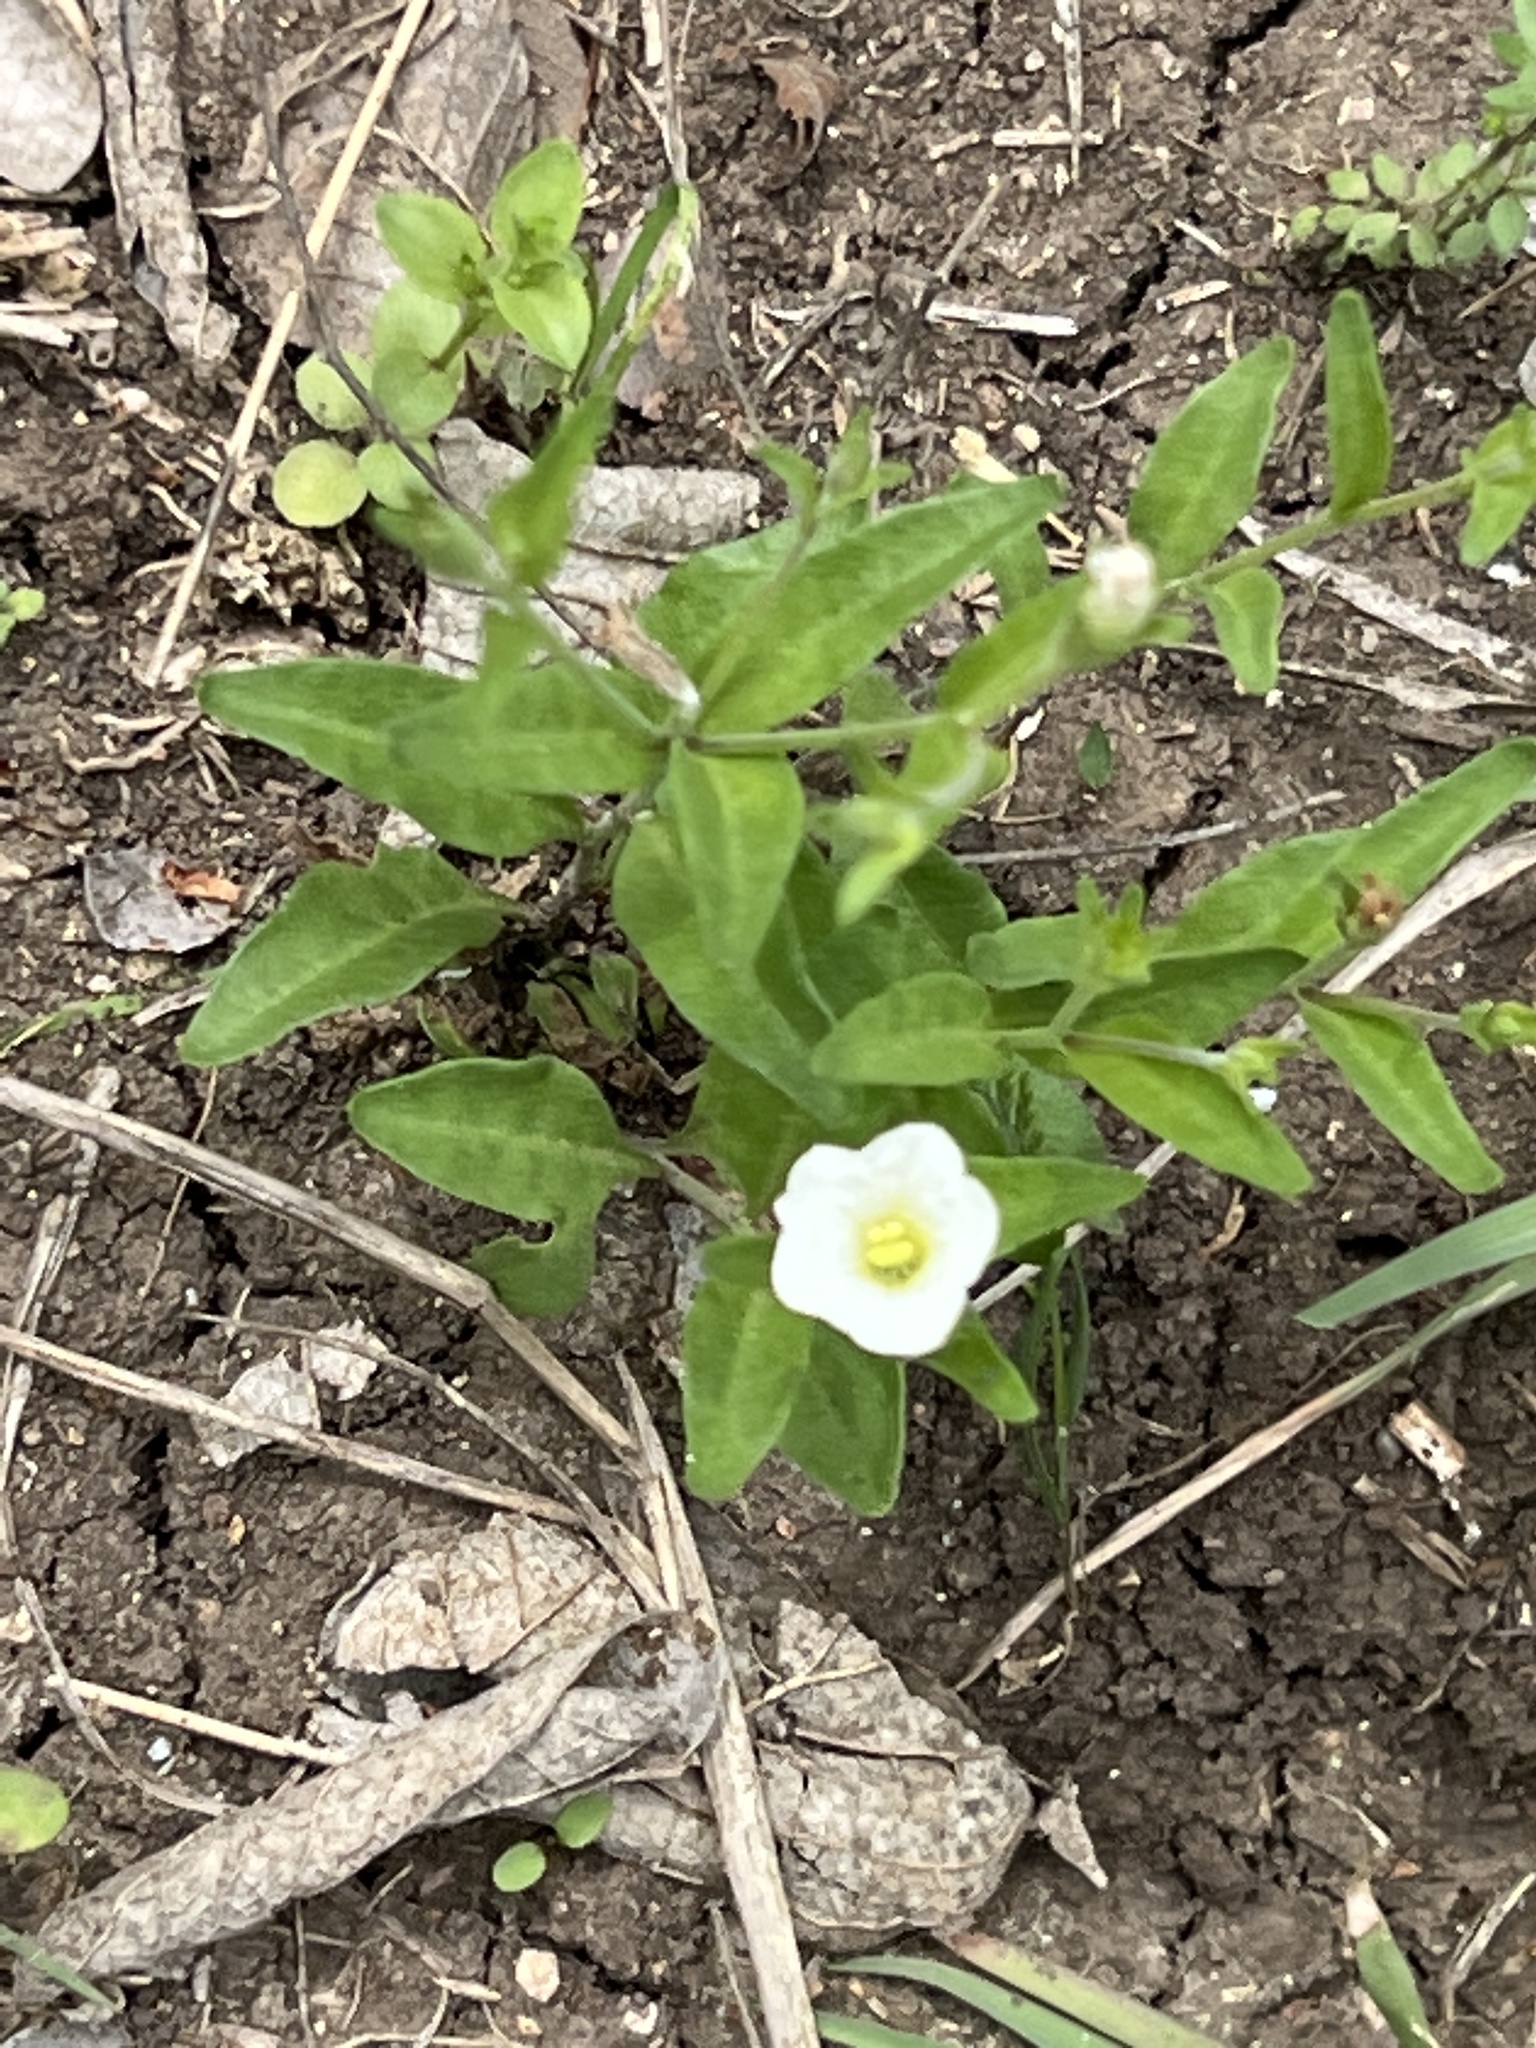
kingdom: Plantae
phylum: Tracheophyta
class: Magnoliopsida
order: Solanales
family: Solanaceae
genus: Salpiglossis
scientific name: Salpiglossis erecta
